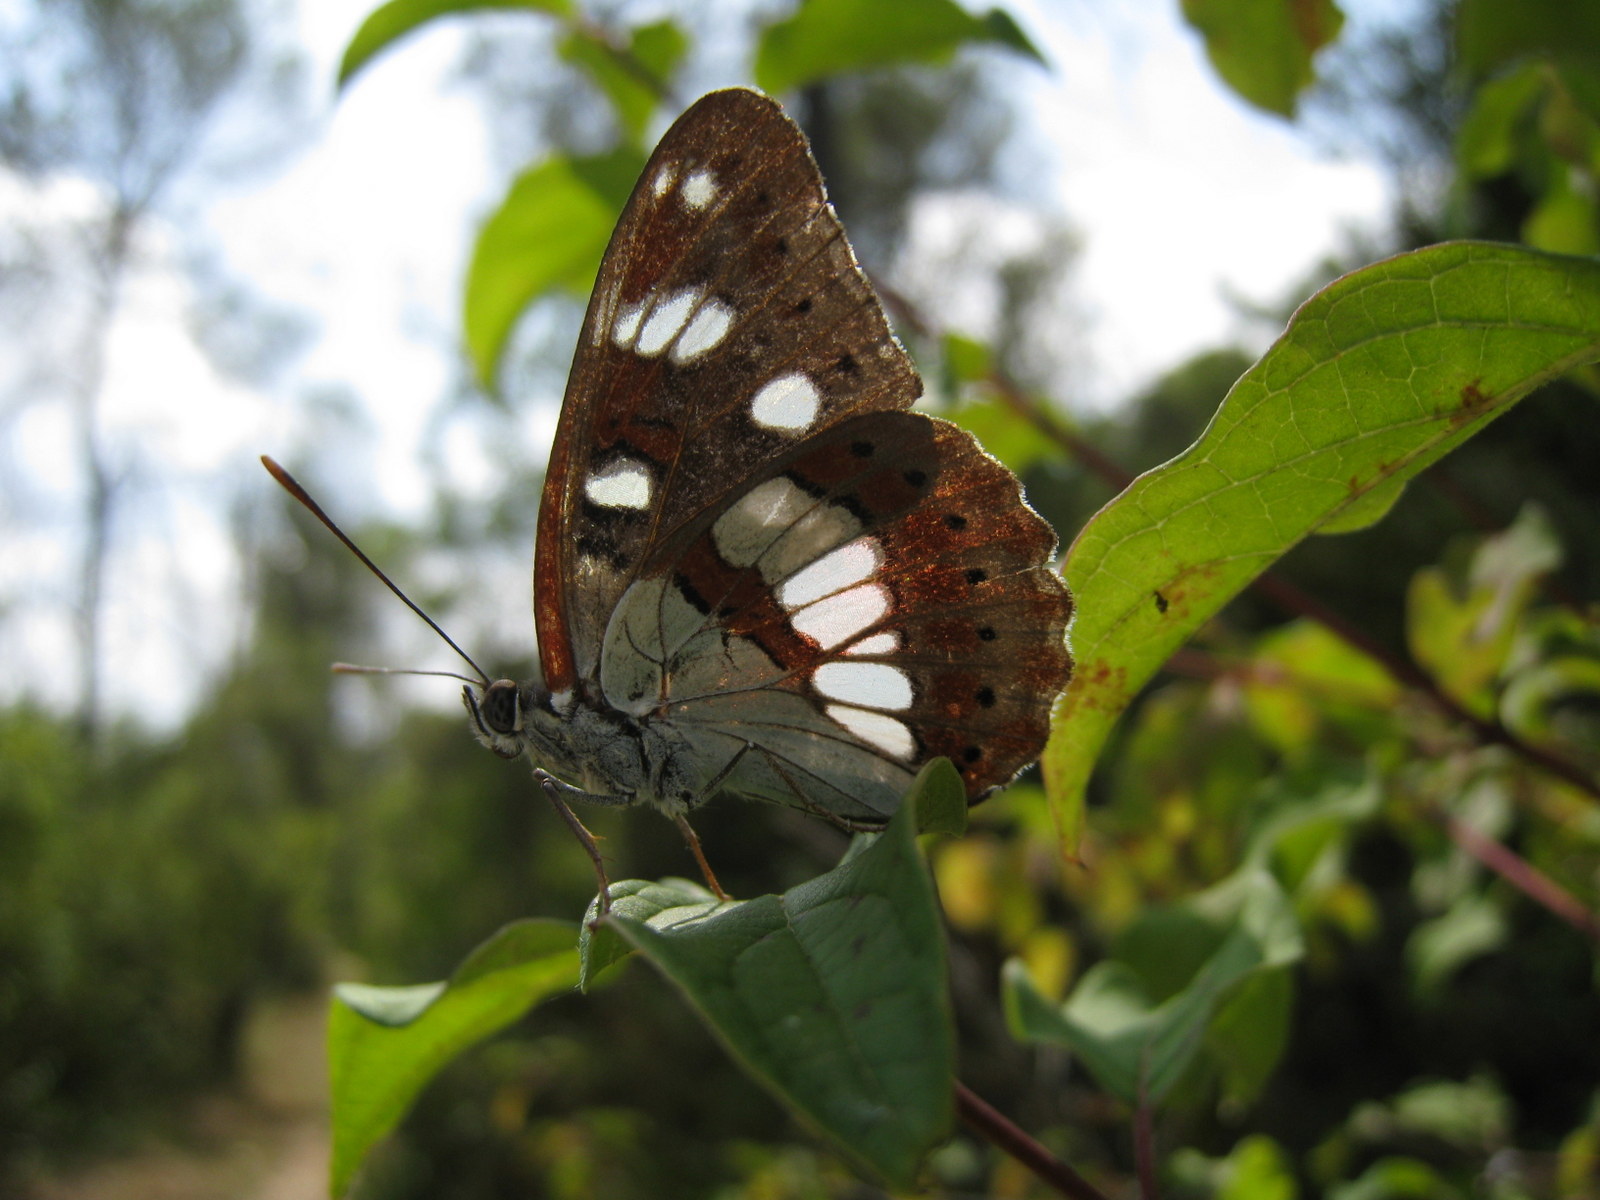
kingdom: Animalia
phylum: Arthropoda
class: Insecta
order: Lepidoptera
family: Nymphalidae
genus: Limenitis
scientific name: Limenitis reducta
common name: Southern white admiral
